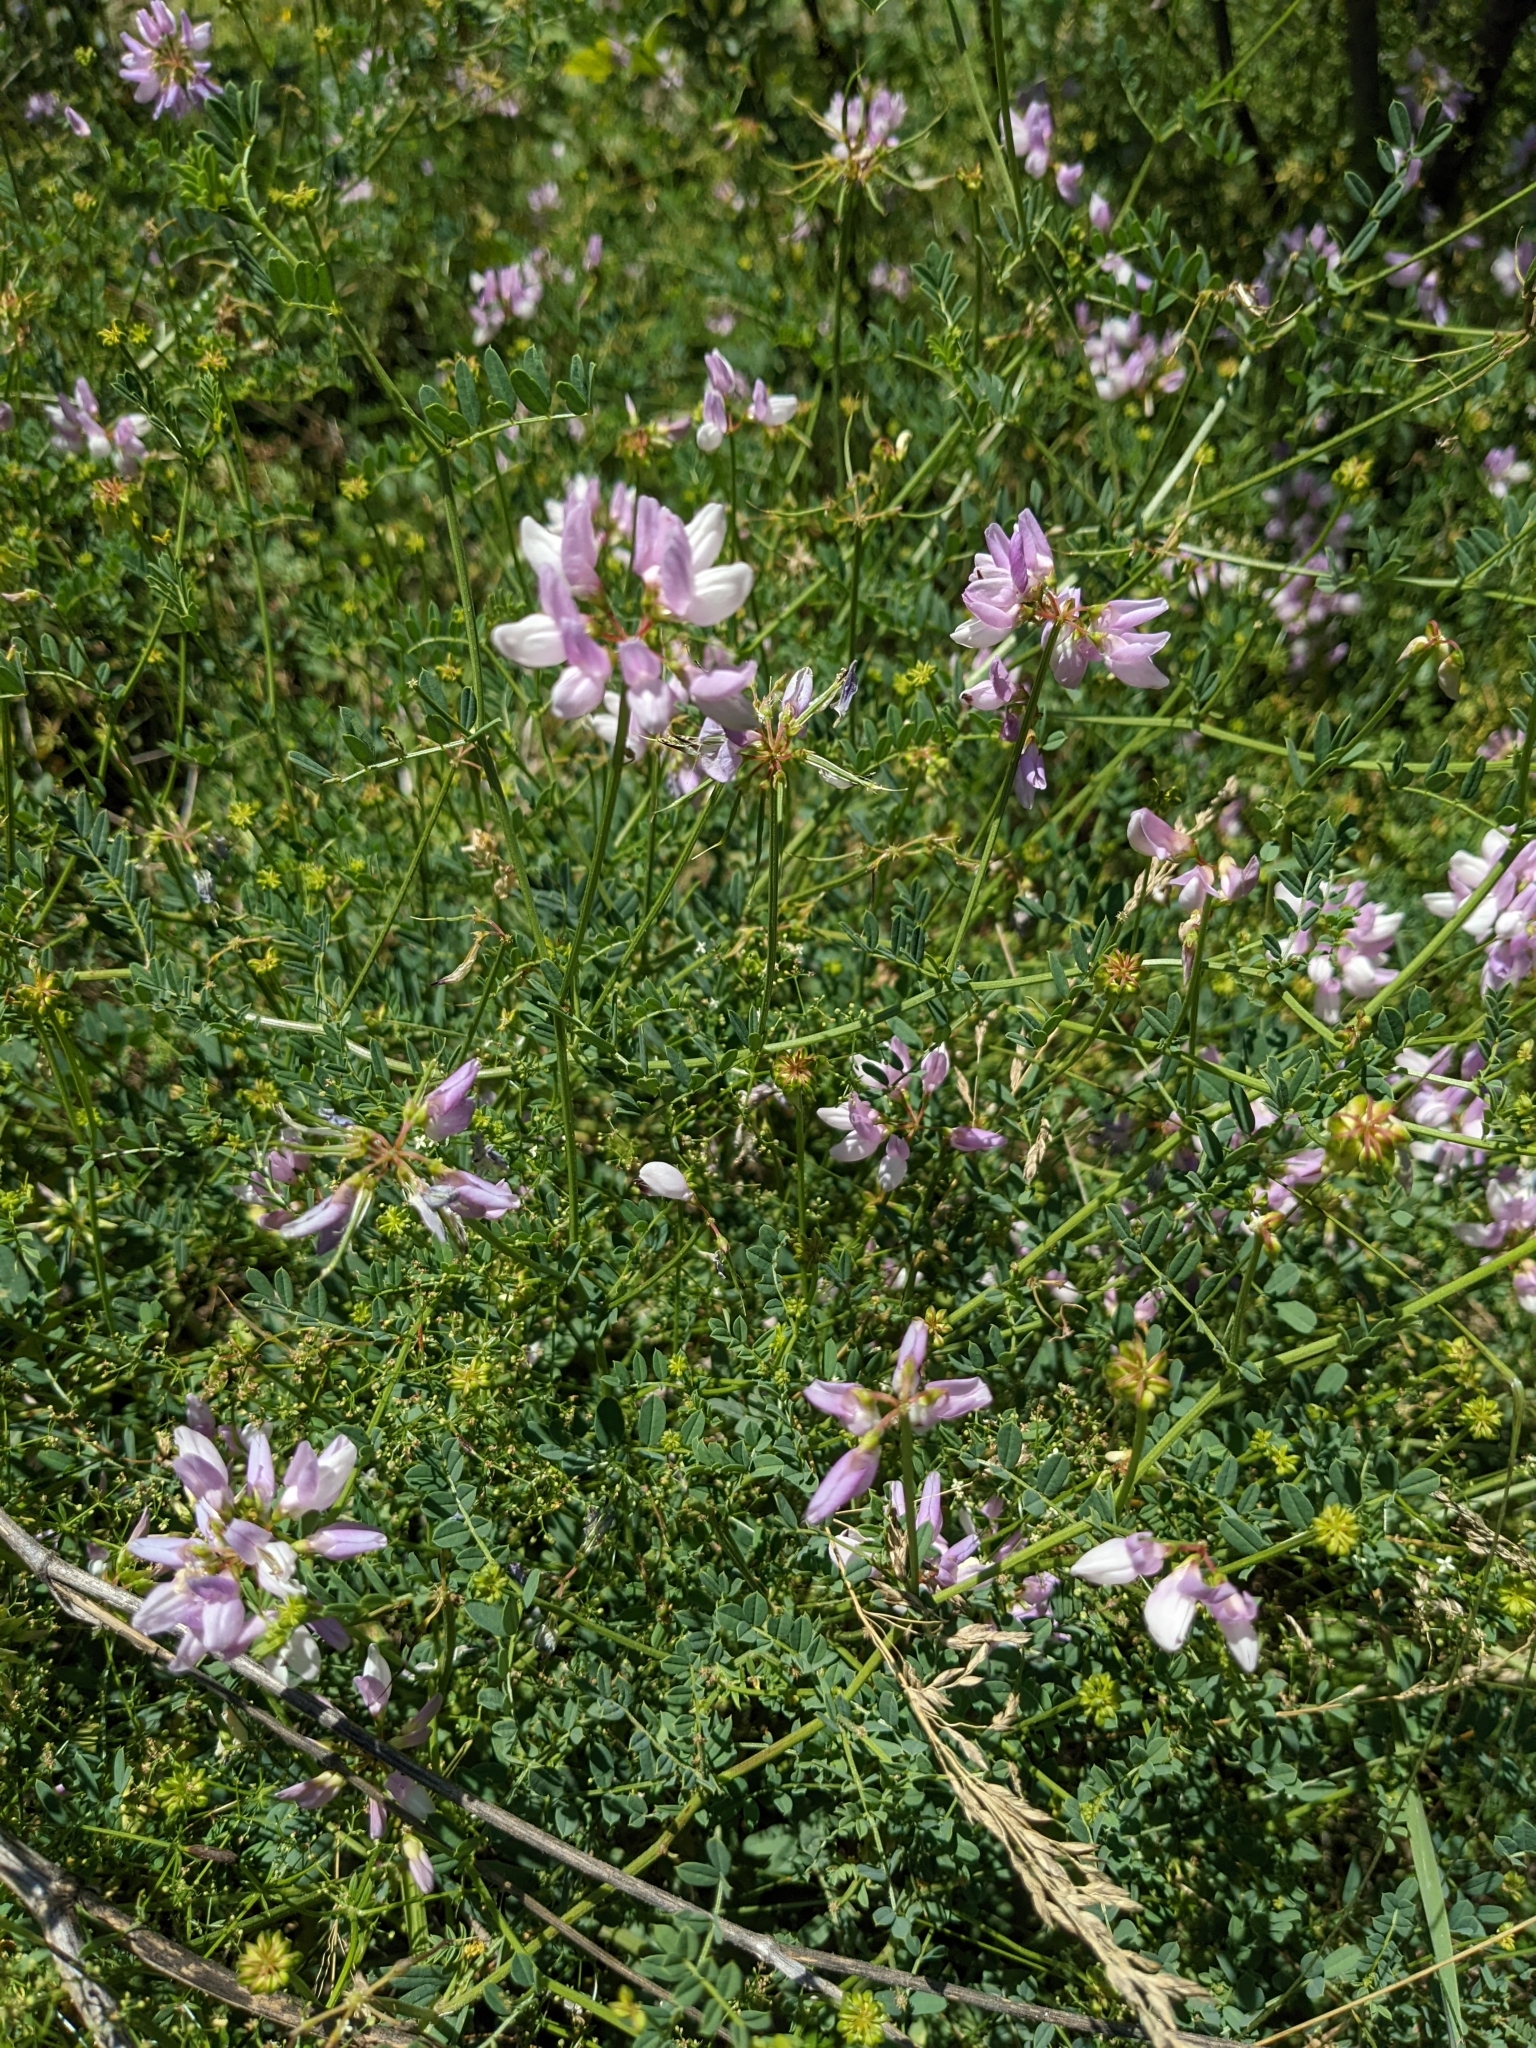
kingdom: Plantae
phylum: Tracheophyta
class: Magnoliopsida
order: Fabales
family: Fabaceae
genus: Coronilla
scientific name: Coronilla varia
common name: Crownvetch
